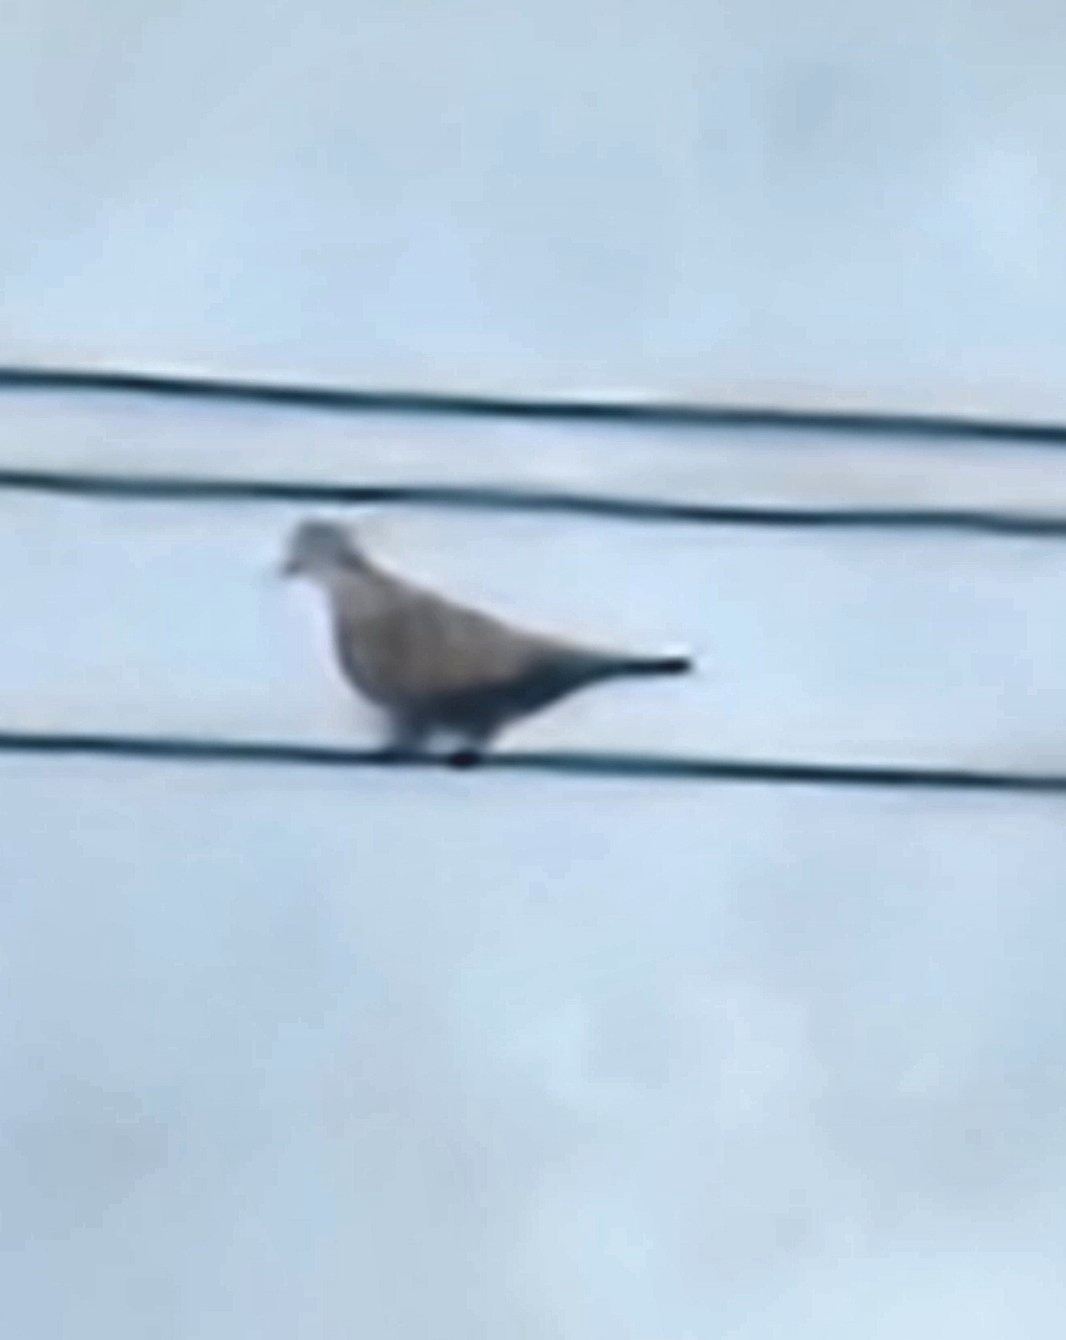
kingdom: Animalia
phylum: Chordata
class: Aves
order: Columbiformes
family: Columbidae
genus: Streptopelia
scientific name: Streptopelia decaocto
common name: Eurasian collared dove
